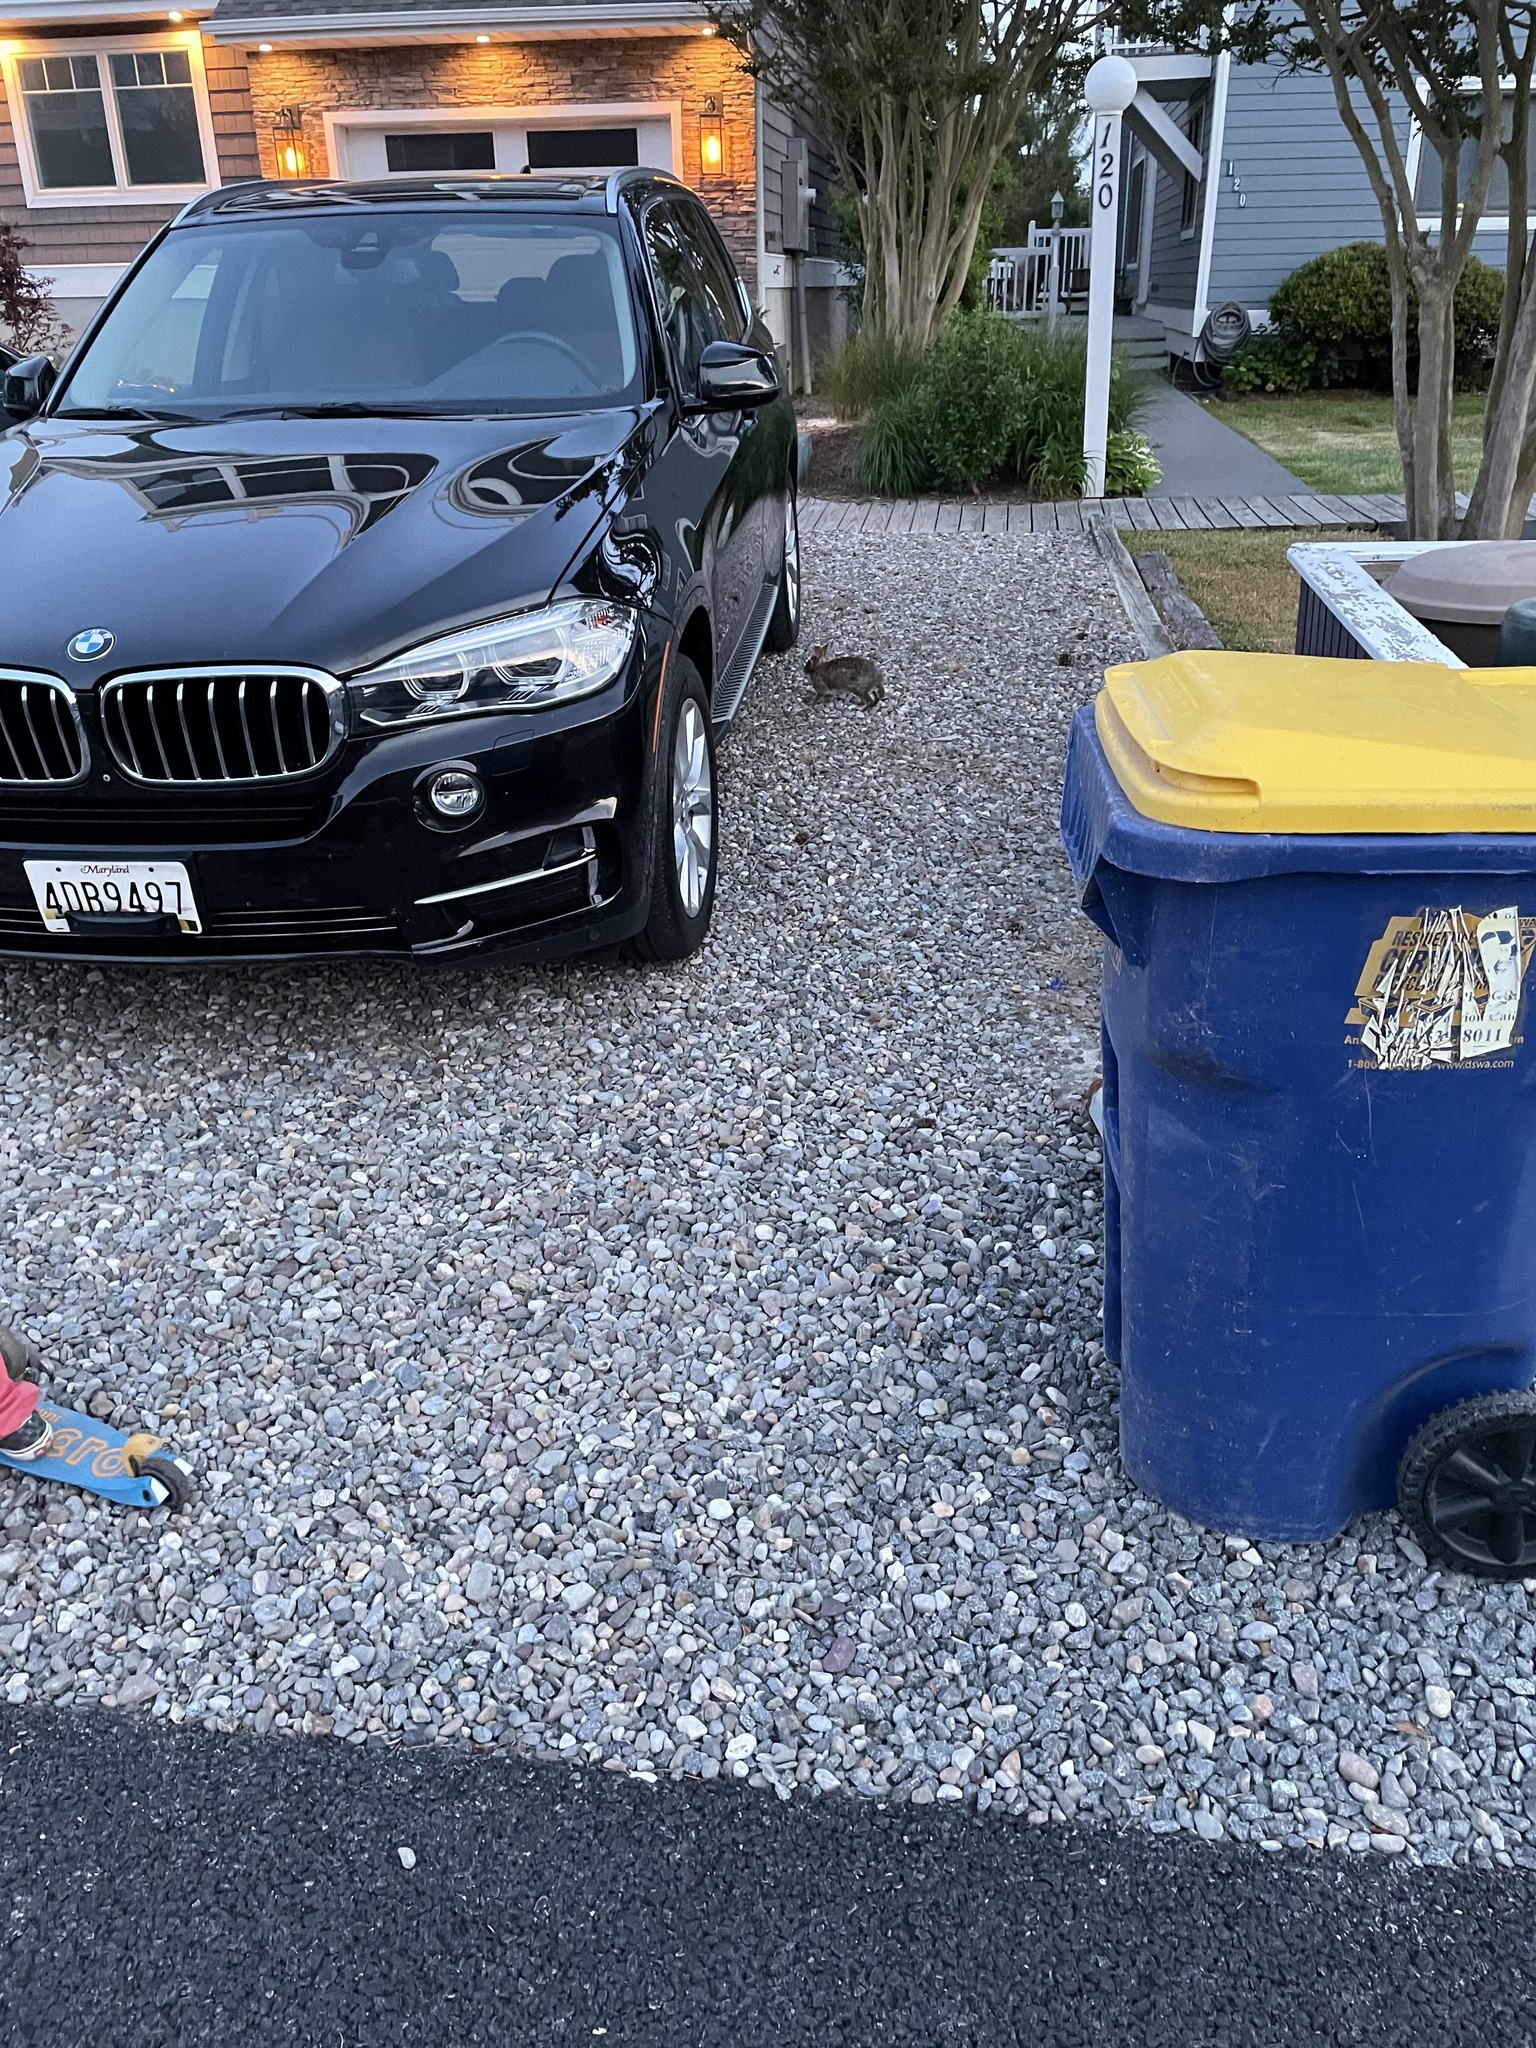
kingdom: Animalia
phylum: Chordata
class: Mammalia
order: Lagomorpha
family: Leporidae
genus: Sylvilagus
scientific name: Sylvilagus floridanus
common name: Eastern cottontail
